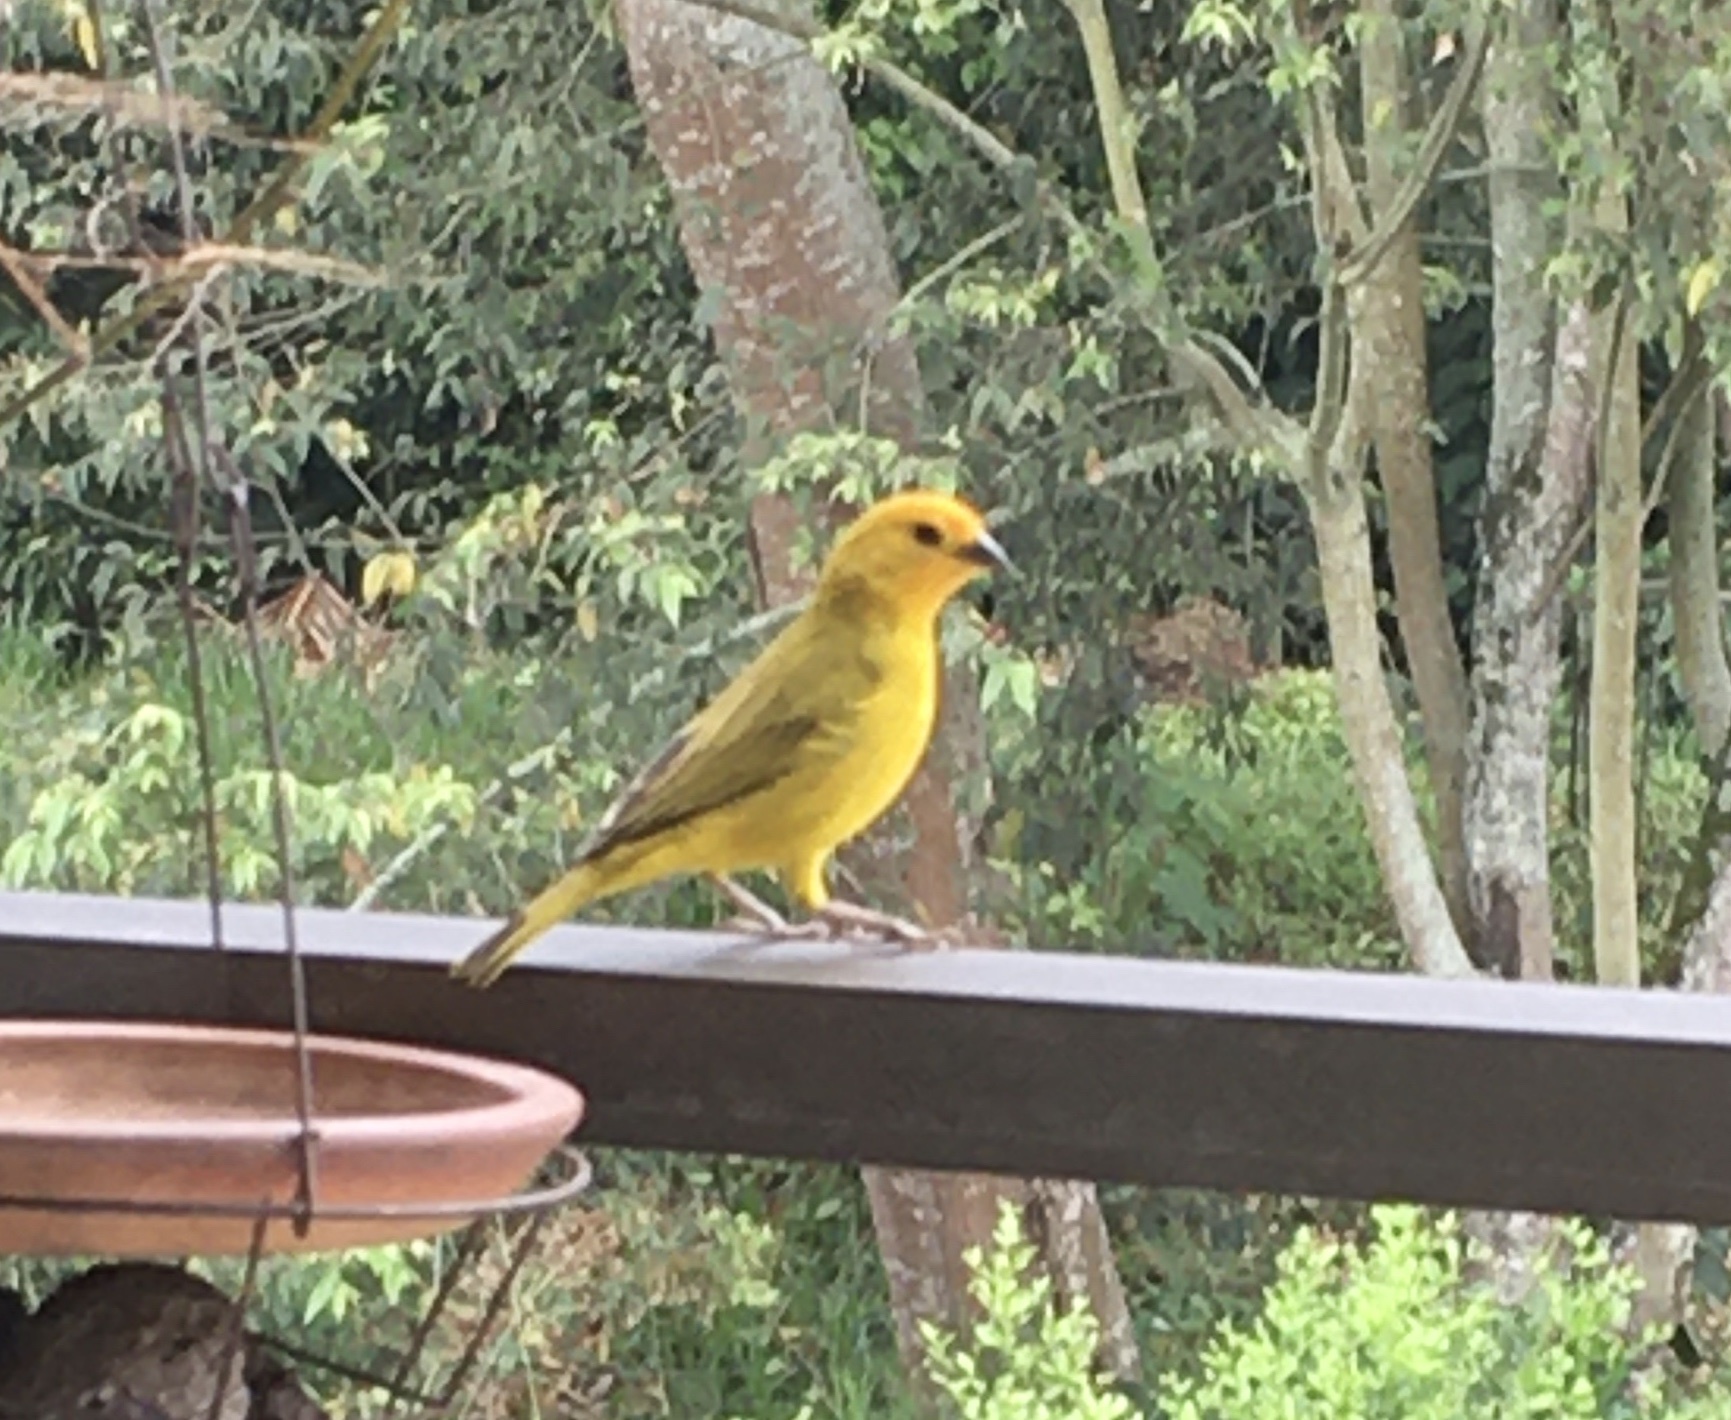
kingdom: Animalia
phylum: Chordata
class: Aves
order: Passeriformes
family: Thraupidae
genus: Sicalis
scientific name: Sicalis flaveola
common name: Saffron finch
